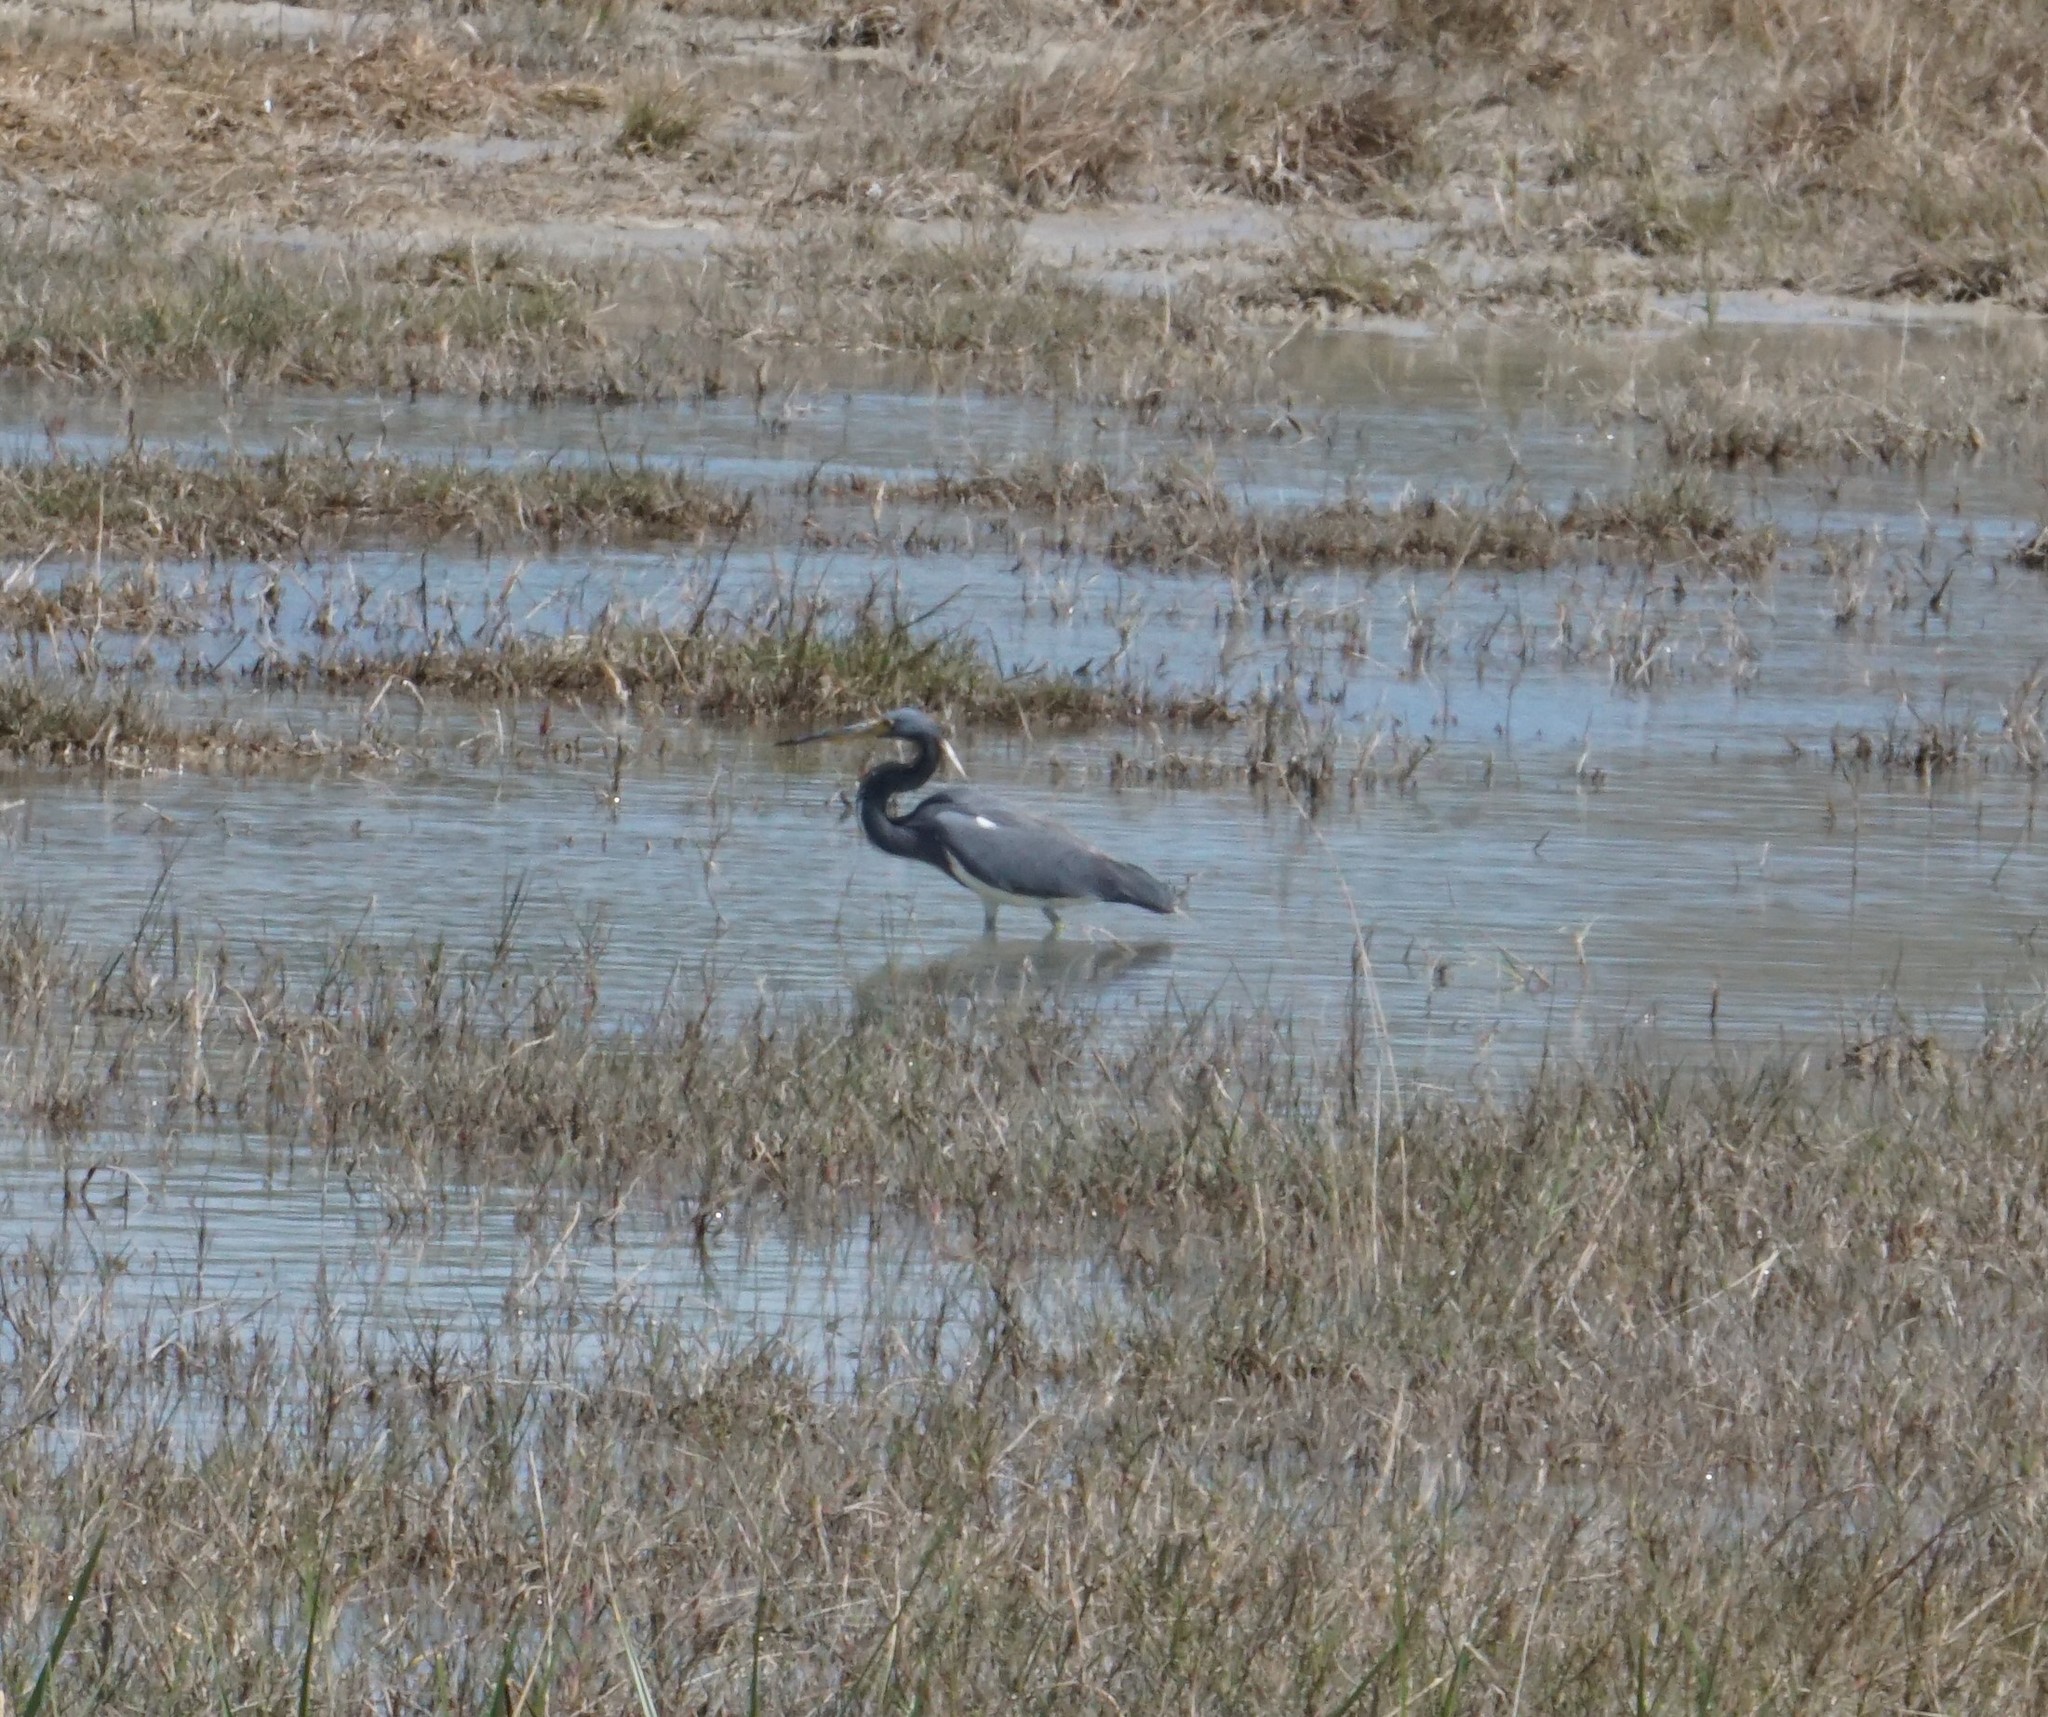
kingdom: Animalia
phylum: Chordata
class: Aves
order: Pelecaniformes
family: Ardeidae
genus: Egretta
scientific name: Egretta tricolor
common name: Tricolored heron
